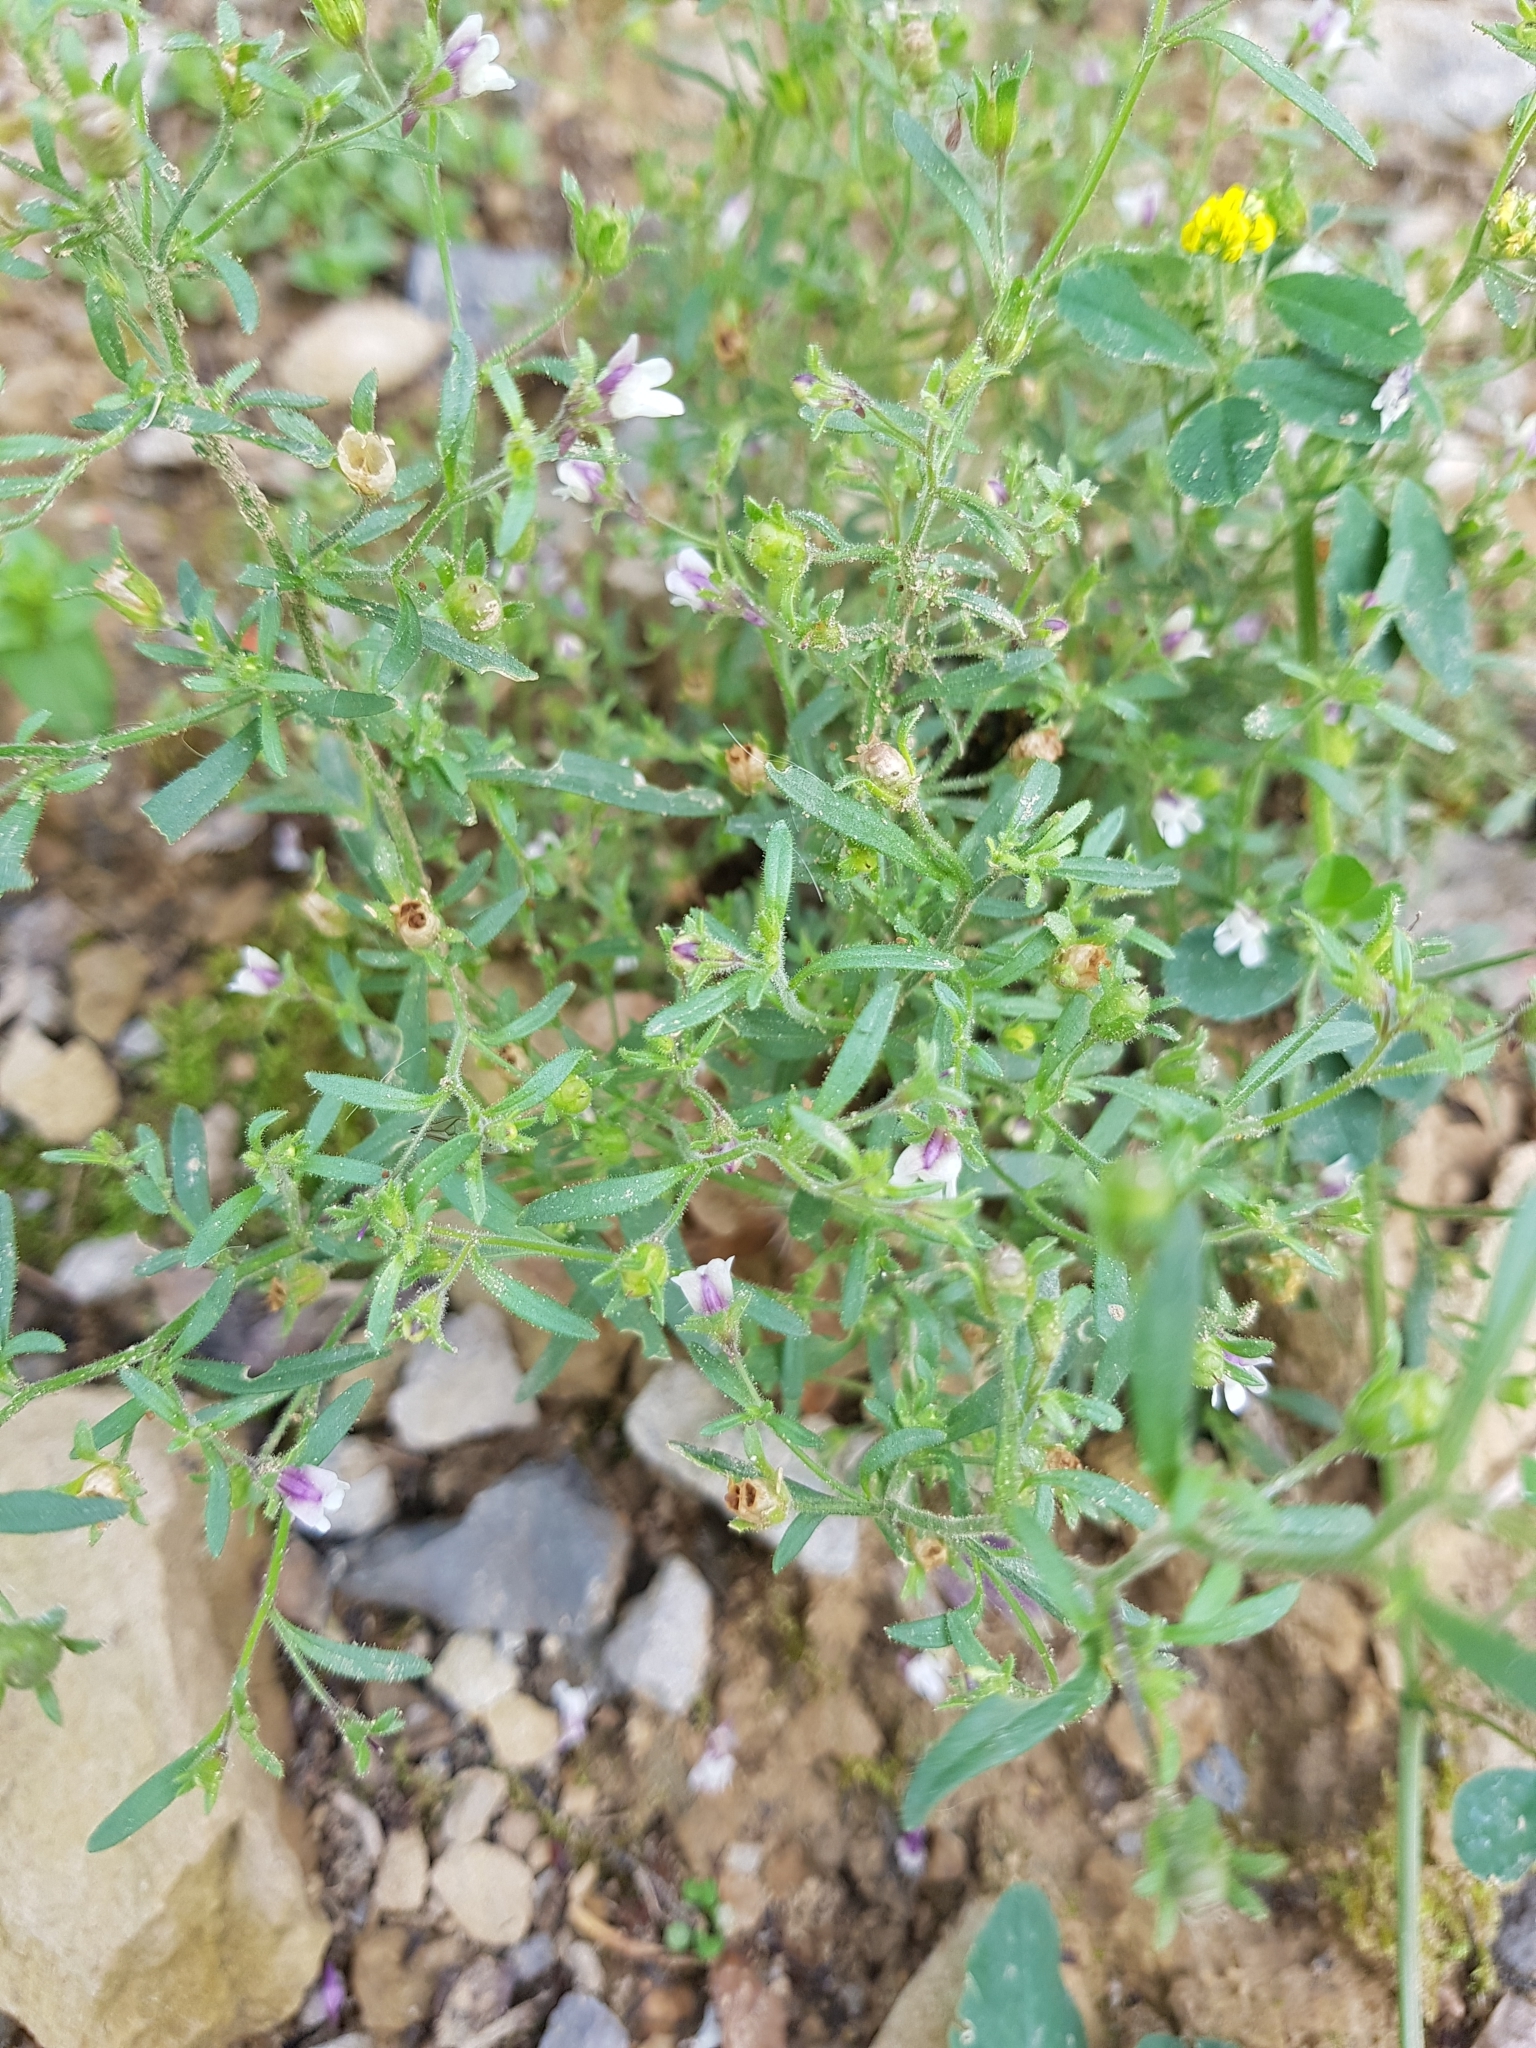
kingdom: Plantae
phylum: Tracheophyta
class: Magnoliopsida
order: Lamiales
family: Plantaginaceae
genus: Chaenorhinum
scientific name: Chaenorhinum minus
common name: Dwarf snapdragon
